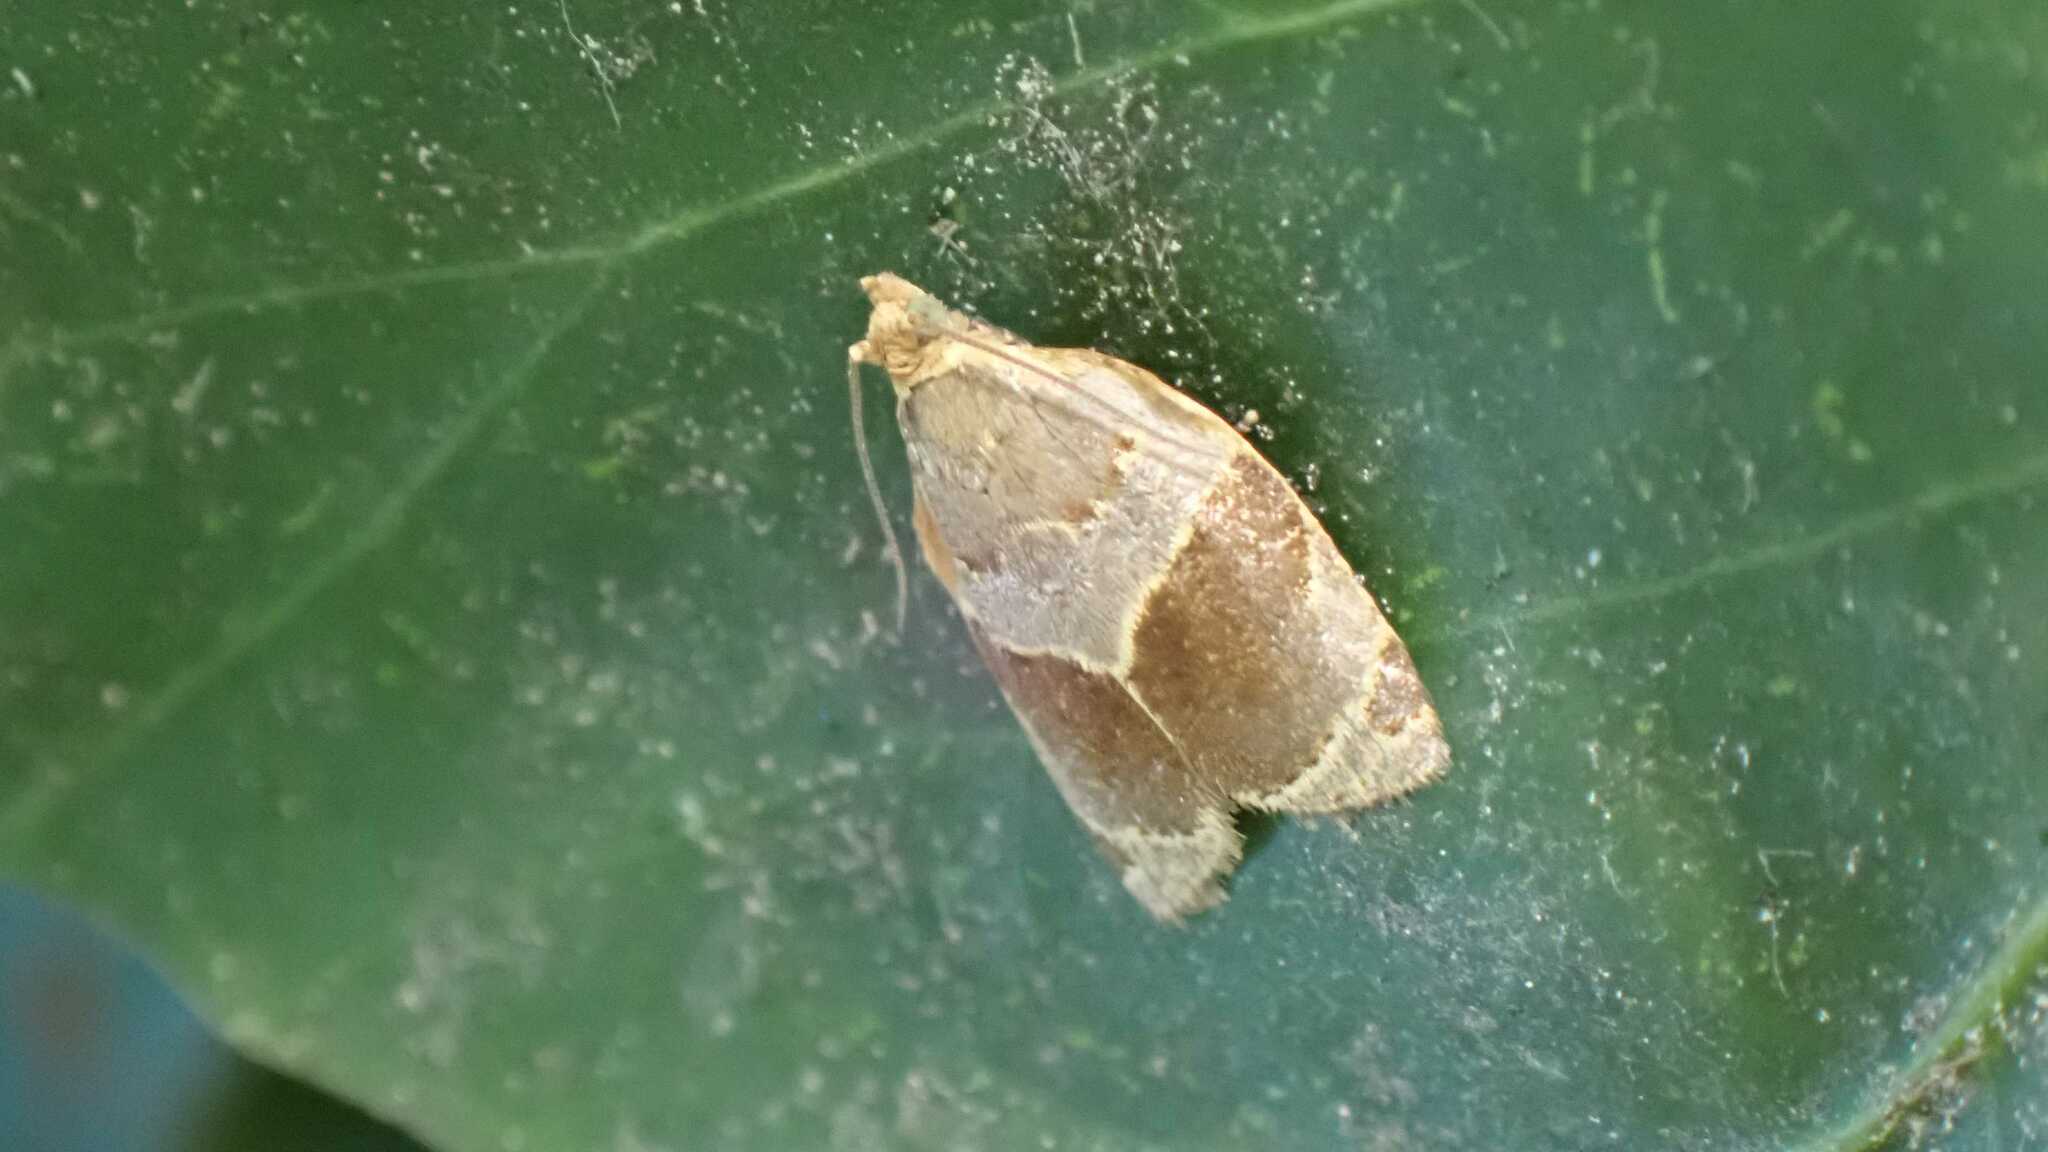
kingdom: Animalia
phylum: Arthropoda
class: Insecta
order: Lepidoptera
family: Tortricidae
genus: Clepsis
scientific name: Clepsis dumicolana
